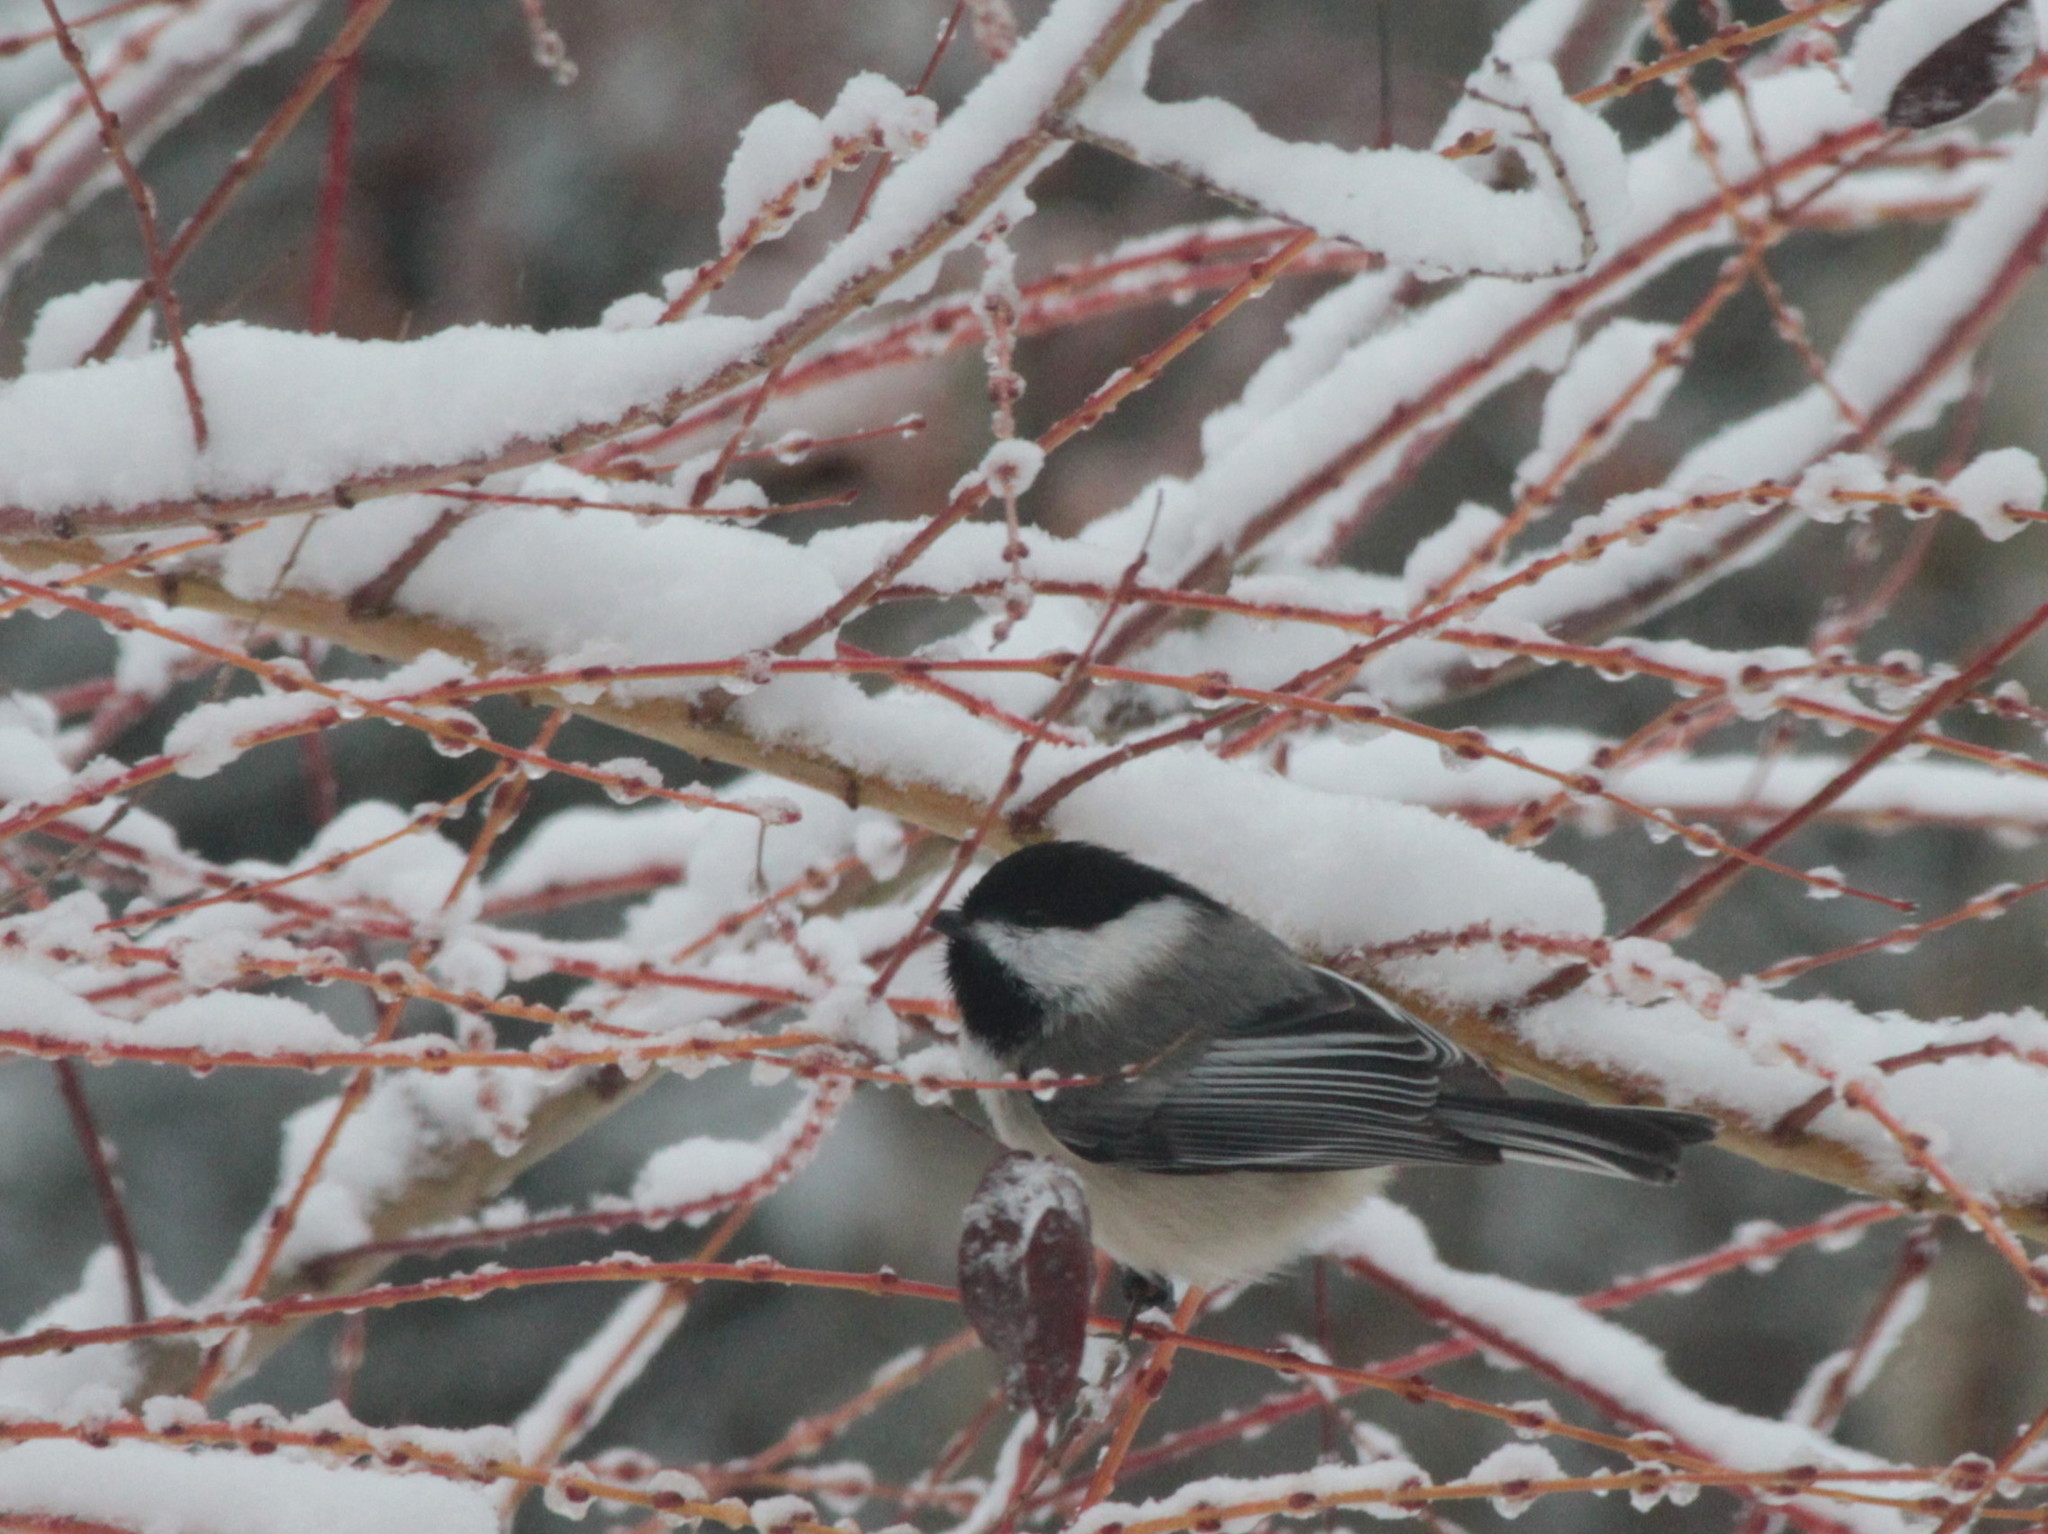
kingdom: Animalia
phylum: Chordata
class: Aves
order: Passeriformes
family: Paridae
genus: Poecile
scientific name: Poecile atricapillus
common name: Black-capped chickadee
